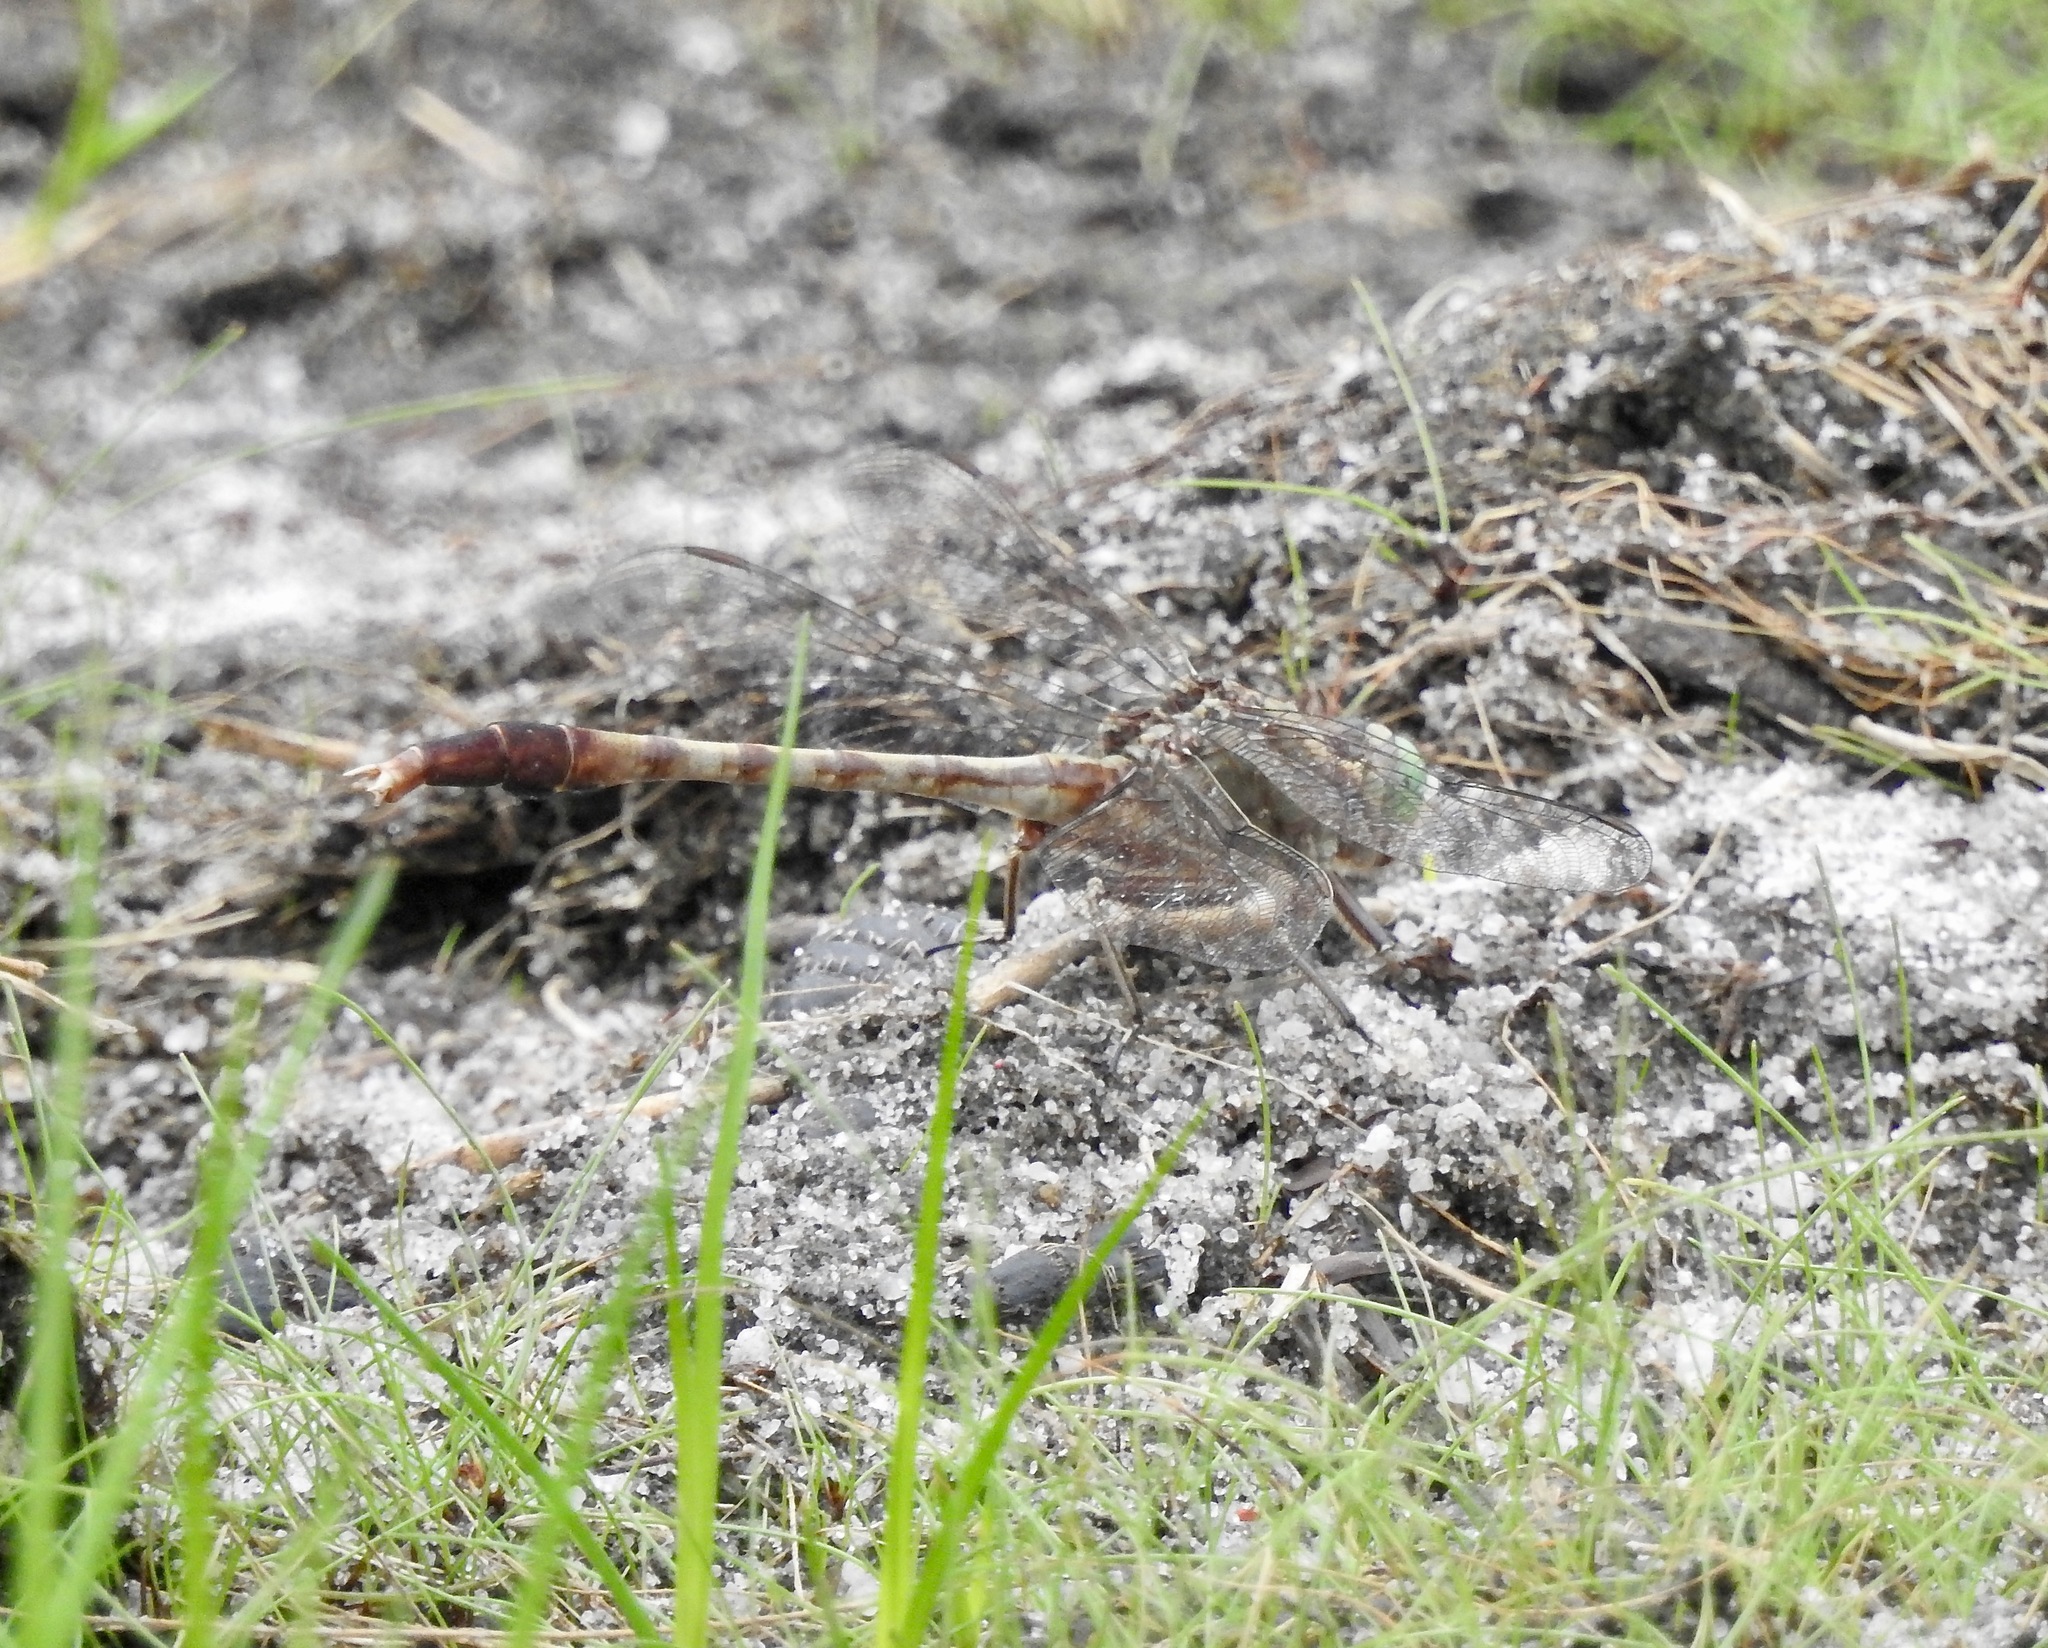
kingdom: Animalia
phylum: Arthropoda
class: Insecta
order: Odonata
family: Gomphidae
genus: Arigomphus
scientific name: Arigomphus pallidus
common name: Gray-green clubtail
